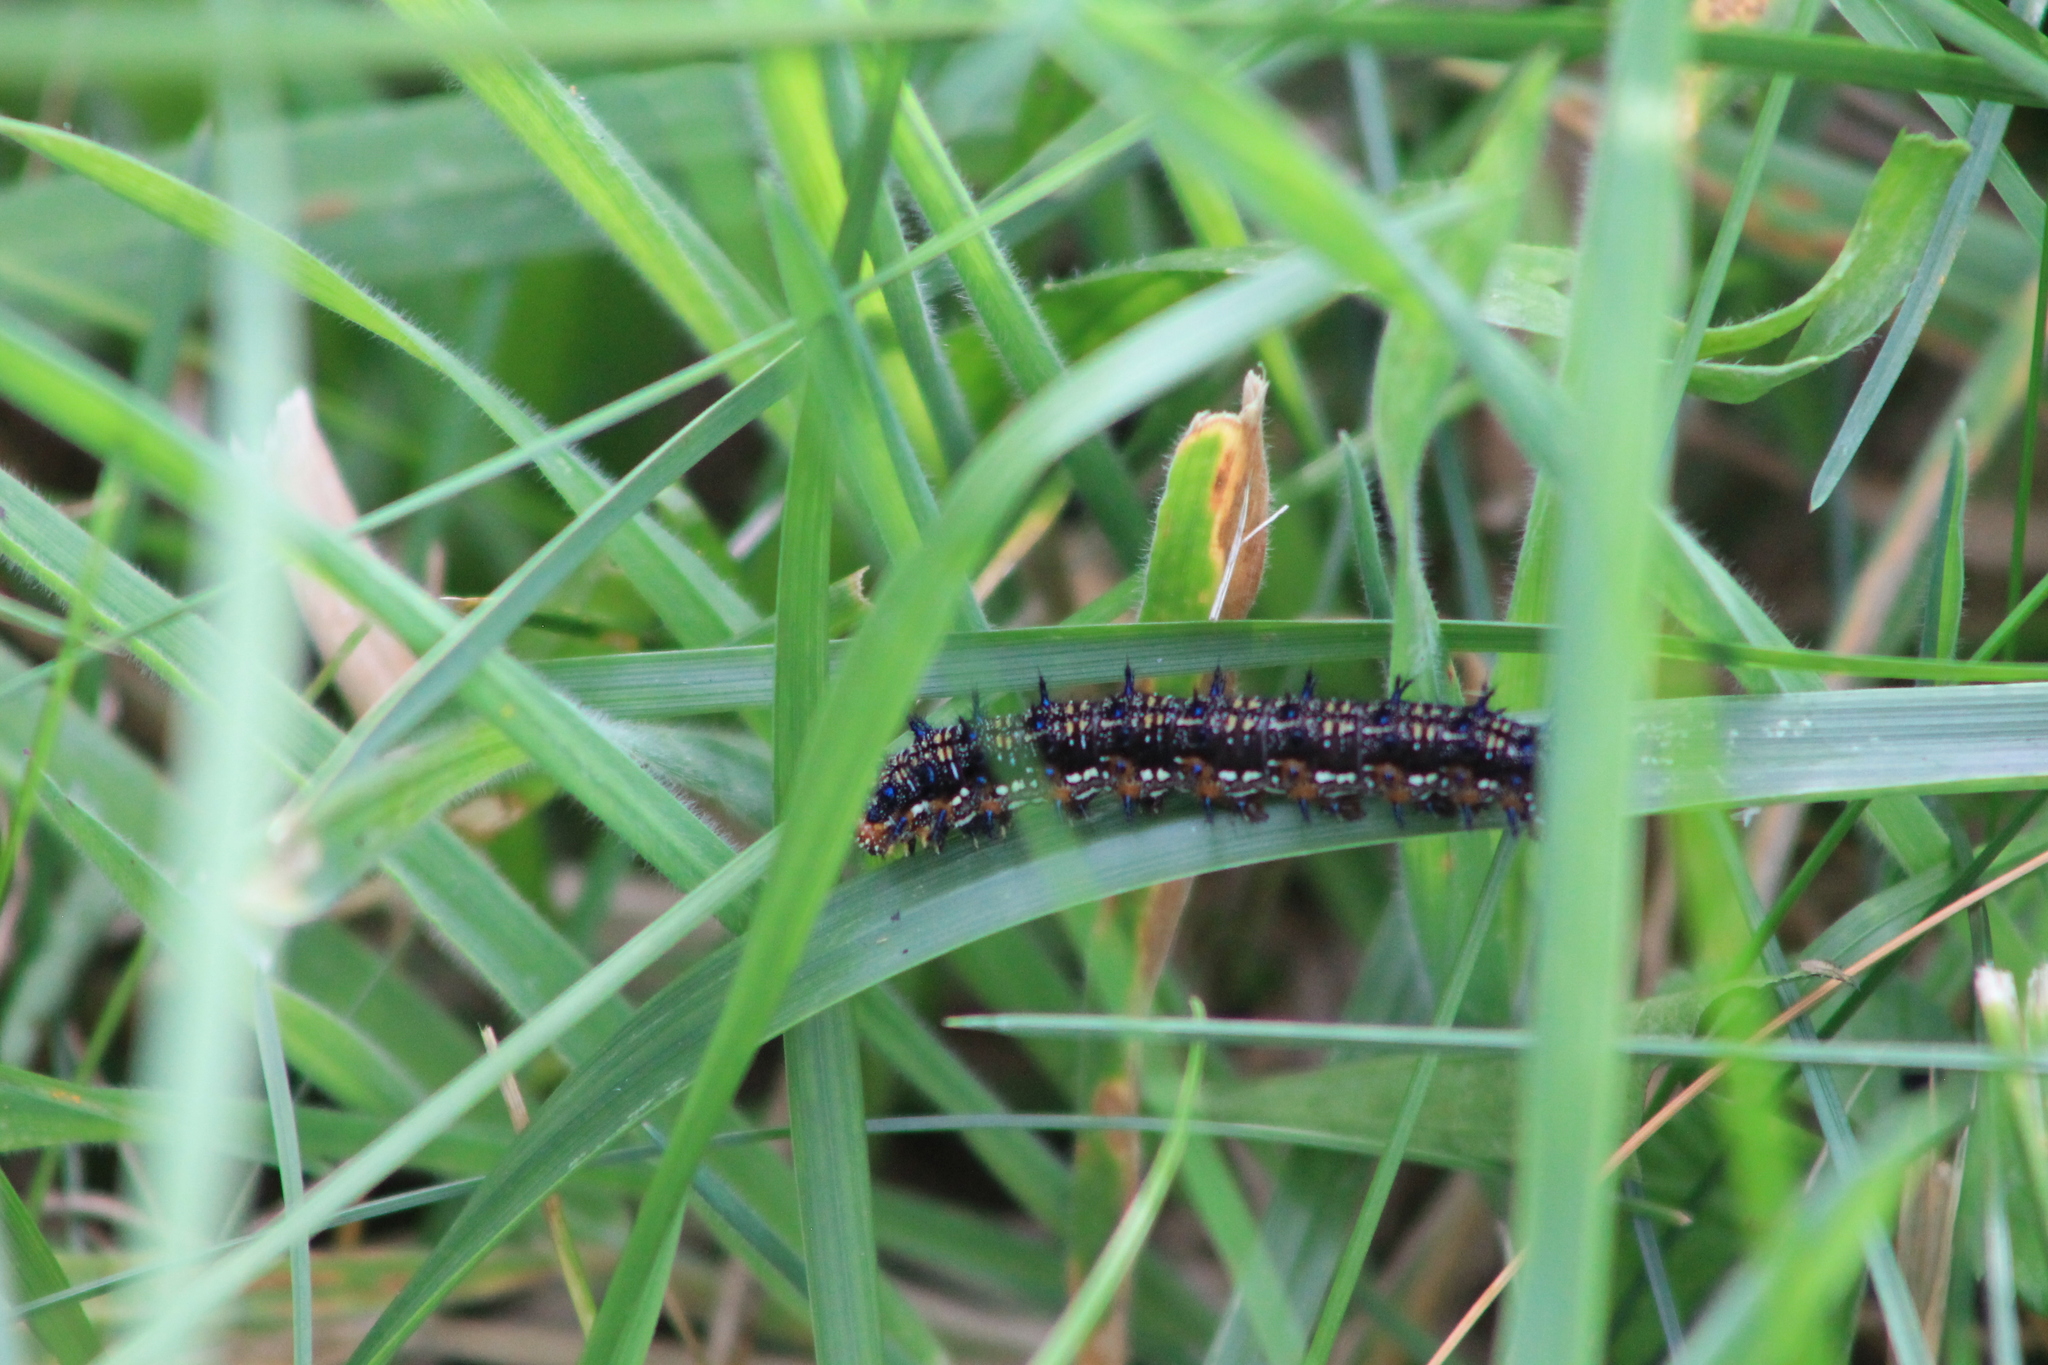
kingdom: Animalia
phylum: Arthropoda
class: Insecta
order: Lepidoptera
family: Nymphalidae
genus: Junonia
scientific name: Junonia coenia
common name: Common buckeye
